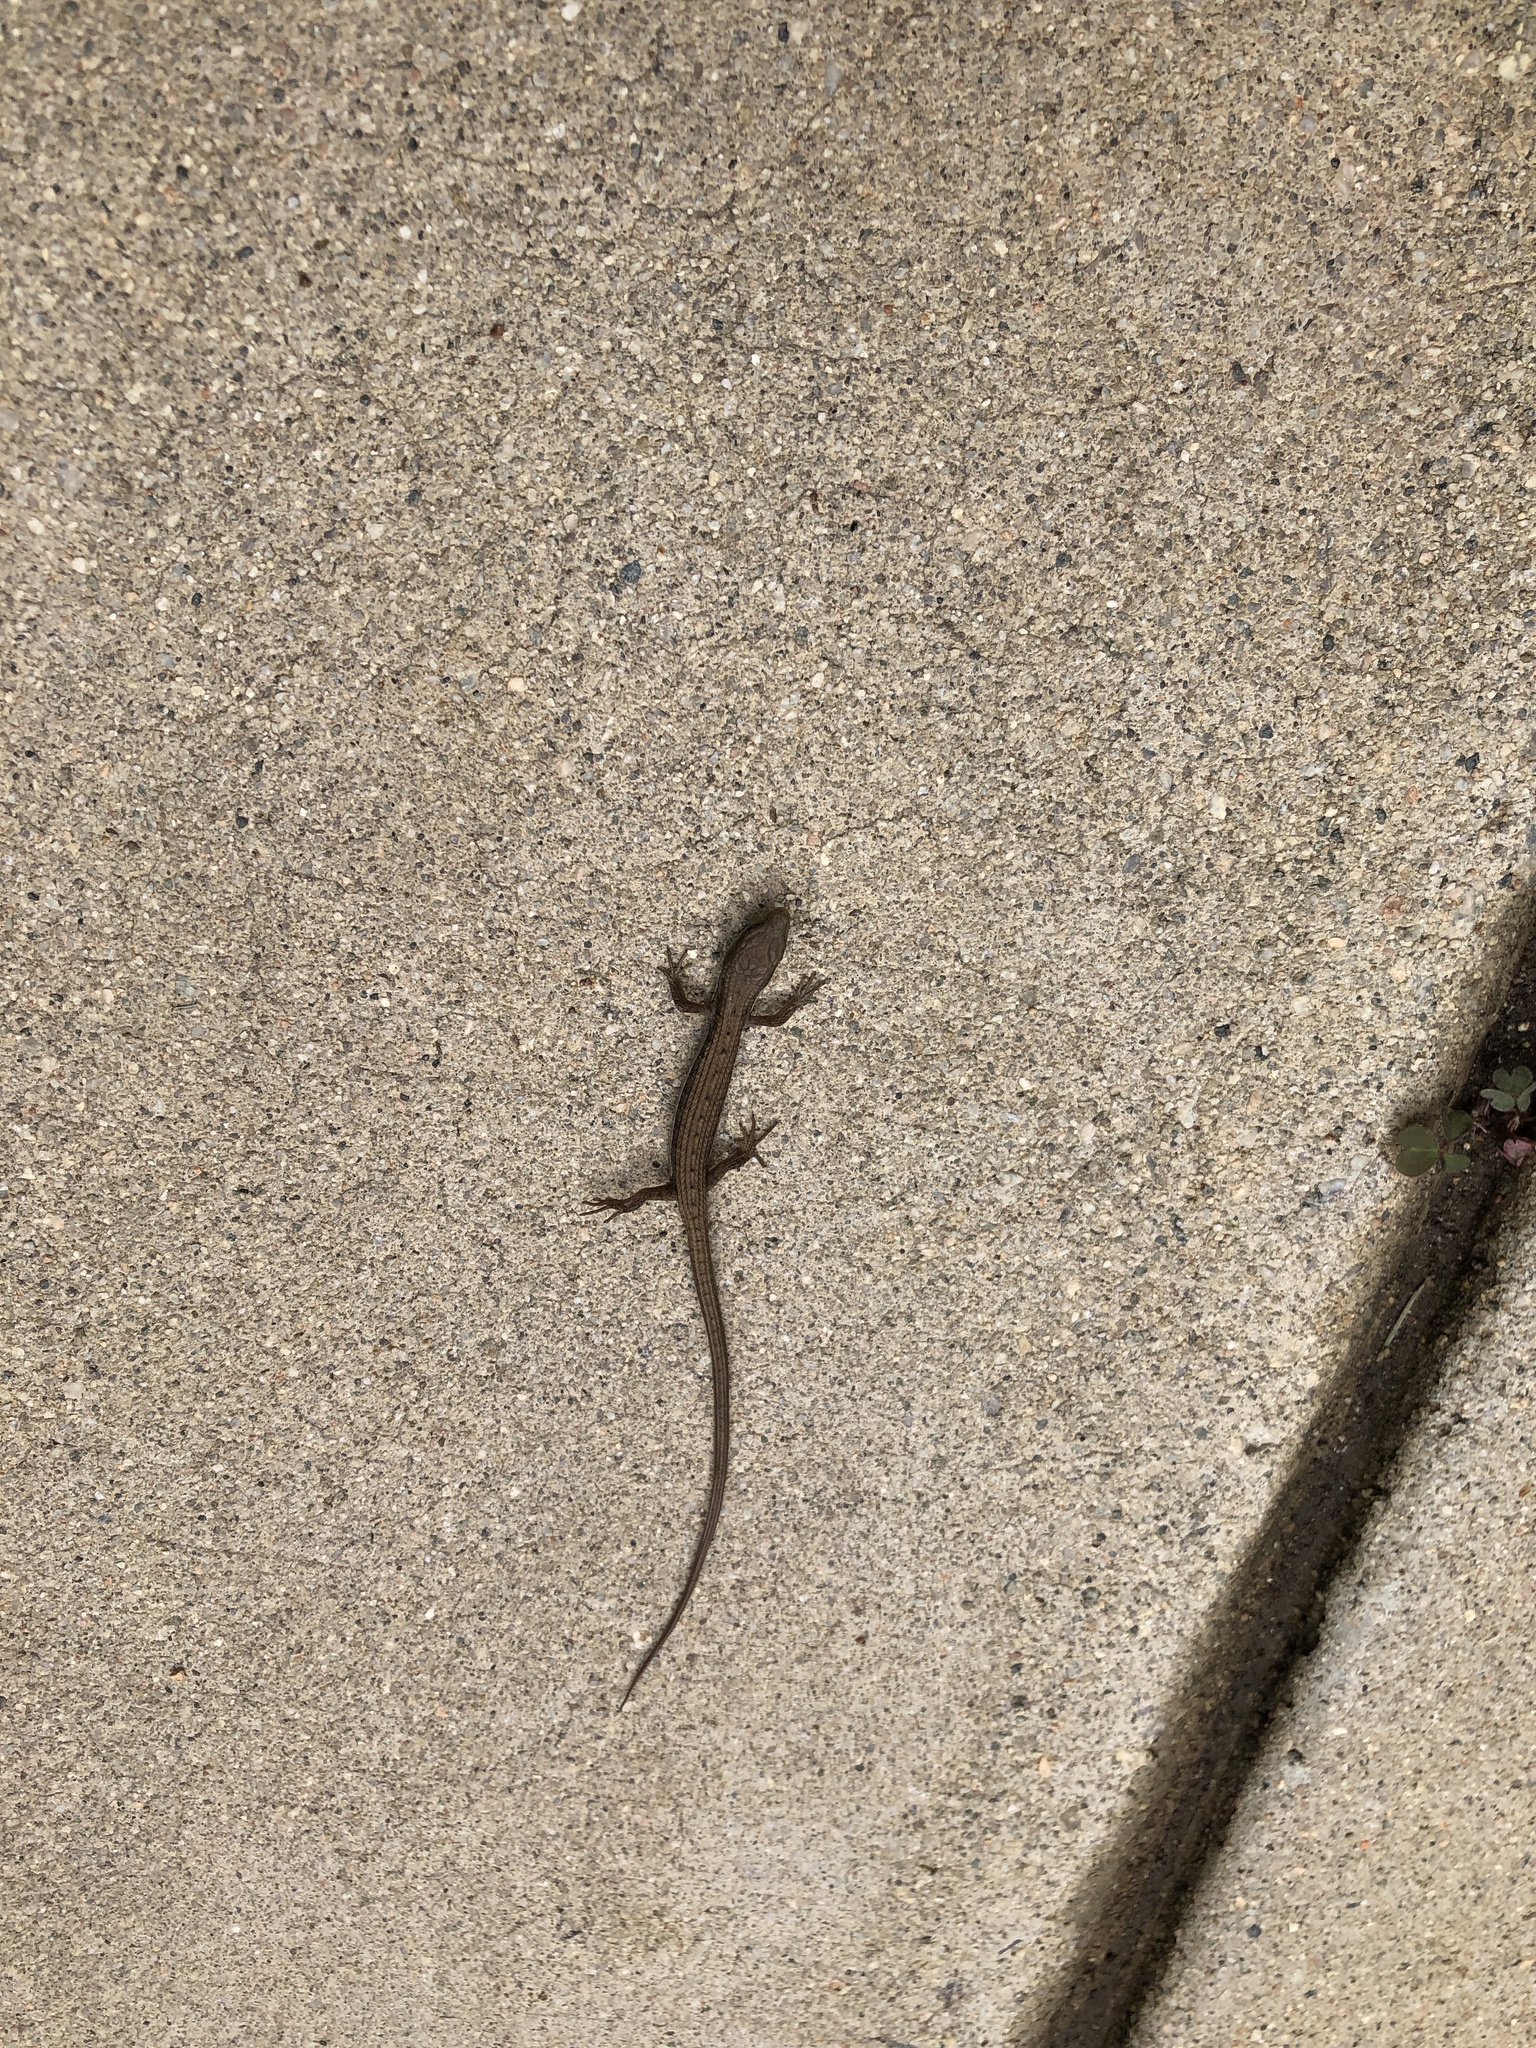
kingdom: Animalia
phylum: Chordata
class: Squamata
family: Anguidae
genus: Elgaria
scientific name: Elgaria multicarinata
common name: Southern alligator lizard
